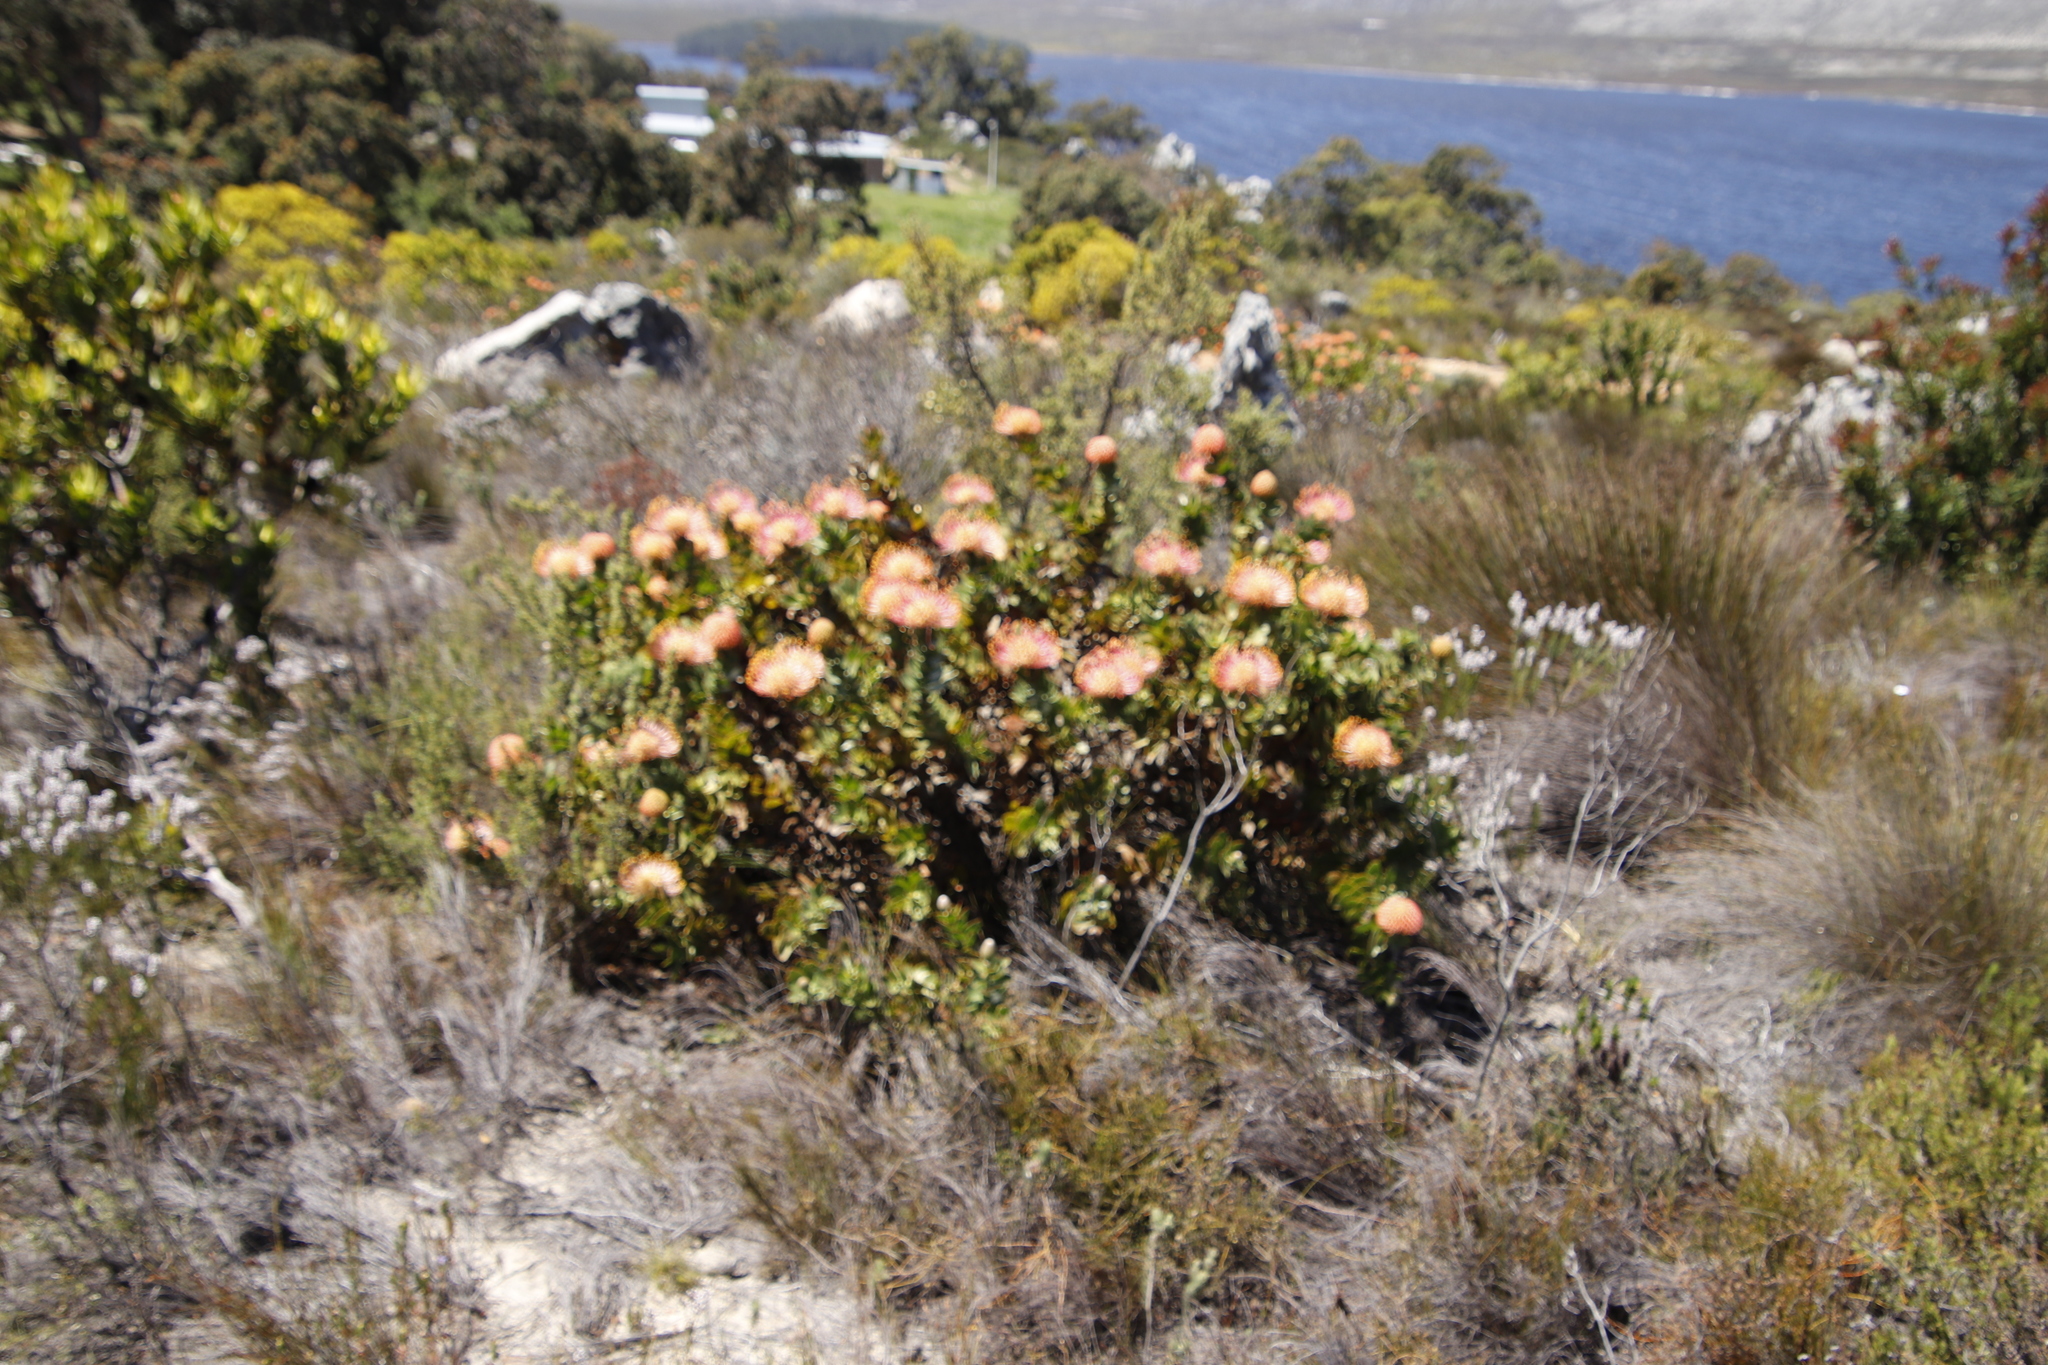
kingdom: Plantae
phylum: Tracheophyta
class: Magnoliopsida
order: Proteales
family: Proteaceae
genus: Leucospermum
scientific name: Leucospermum cordifolium
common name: Red pincushion-protea
